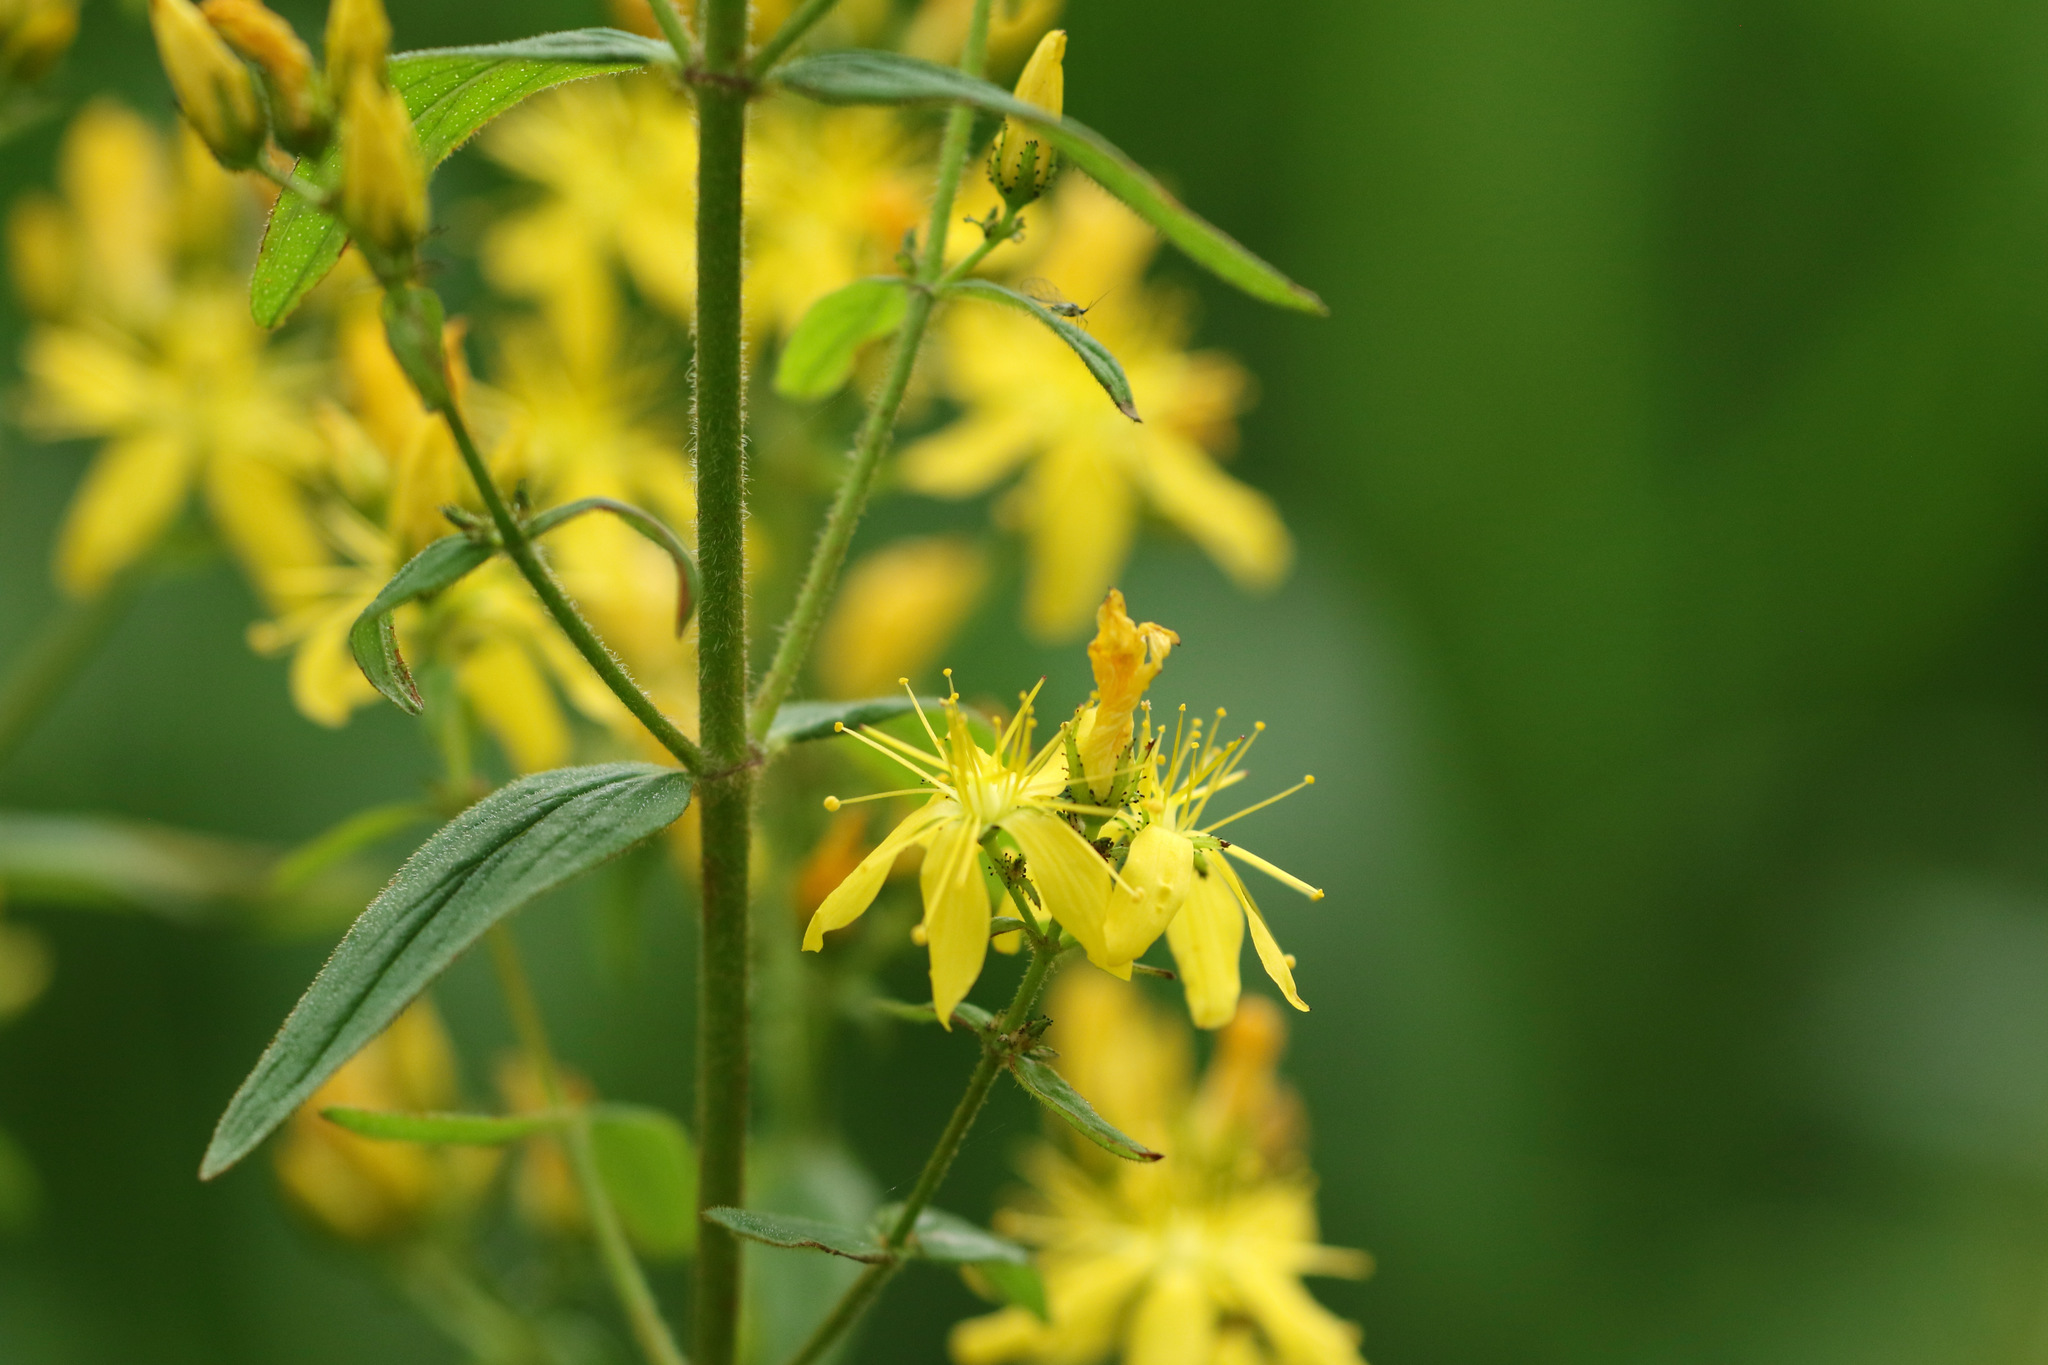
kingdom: Plantae
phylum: Tracheophyta
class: Magnoliopsida
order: Malpighiales
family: Hypericaceae
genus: Hypericum
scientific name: Hypericum hirsutum
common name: Hairy st. john's-wort
